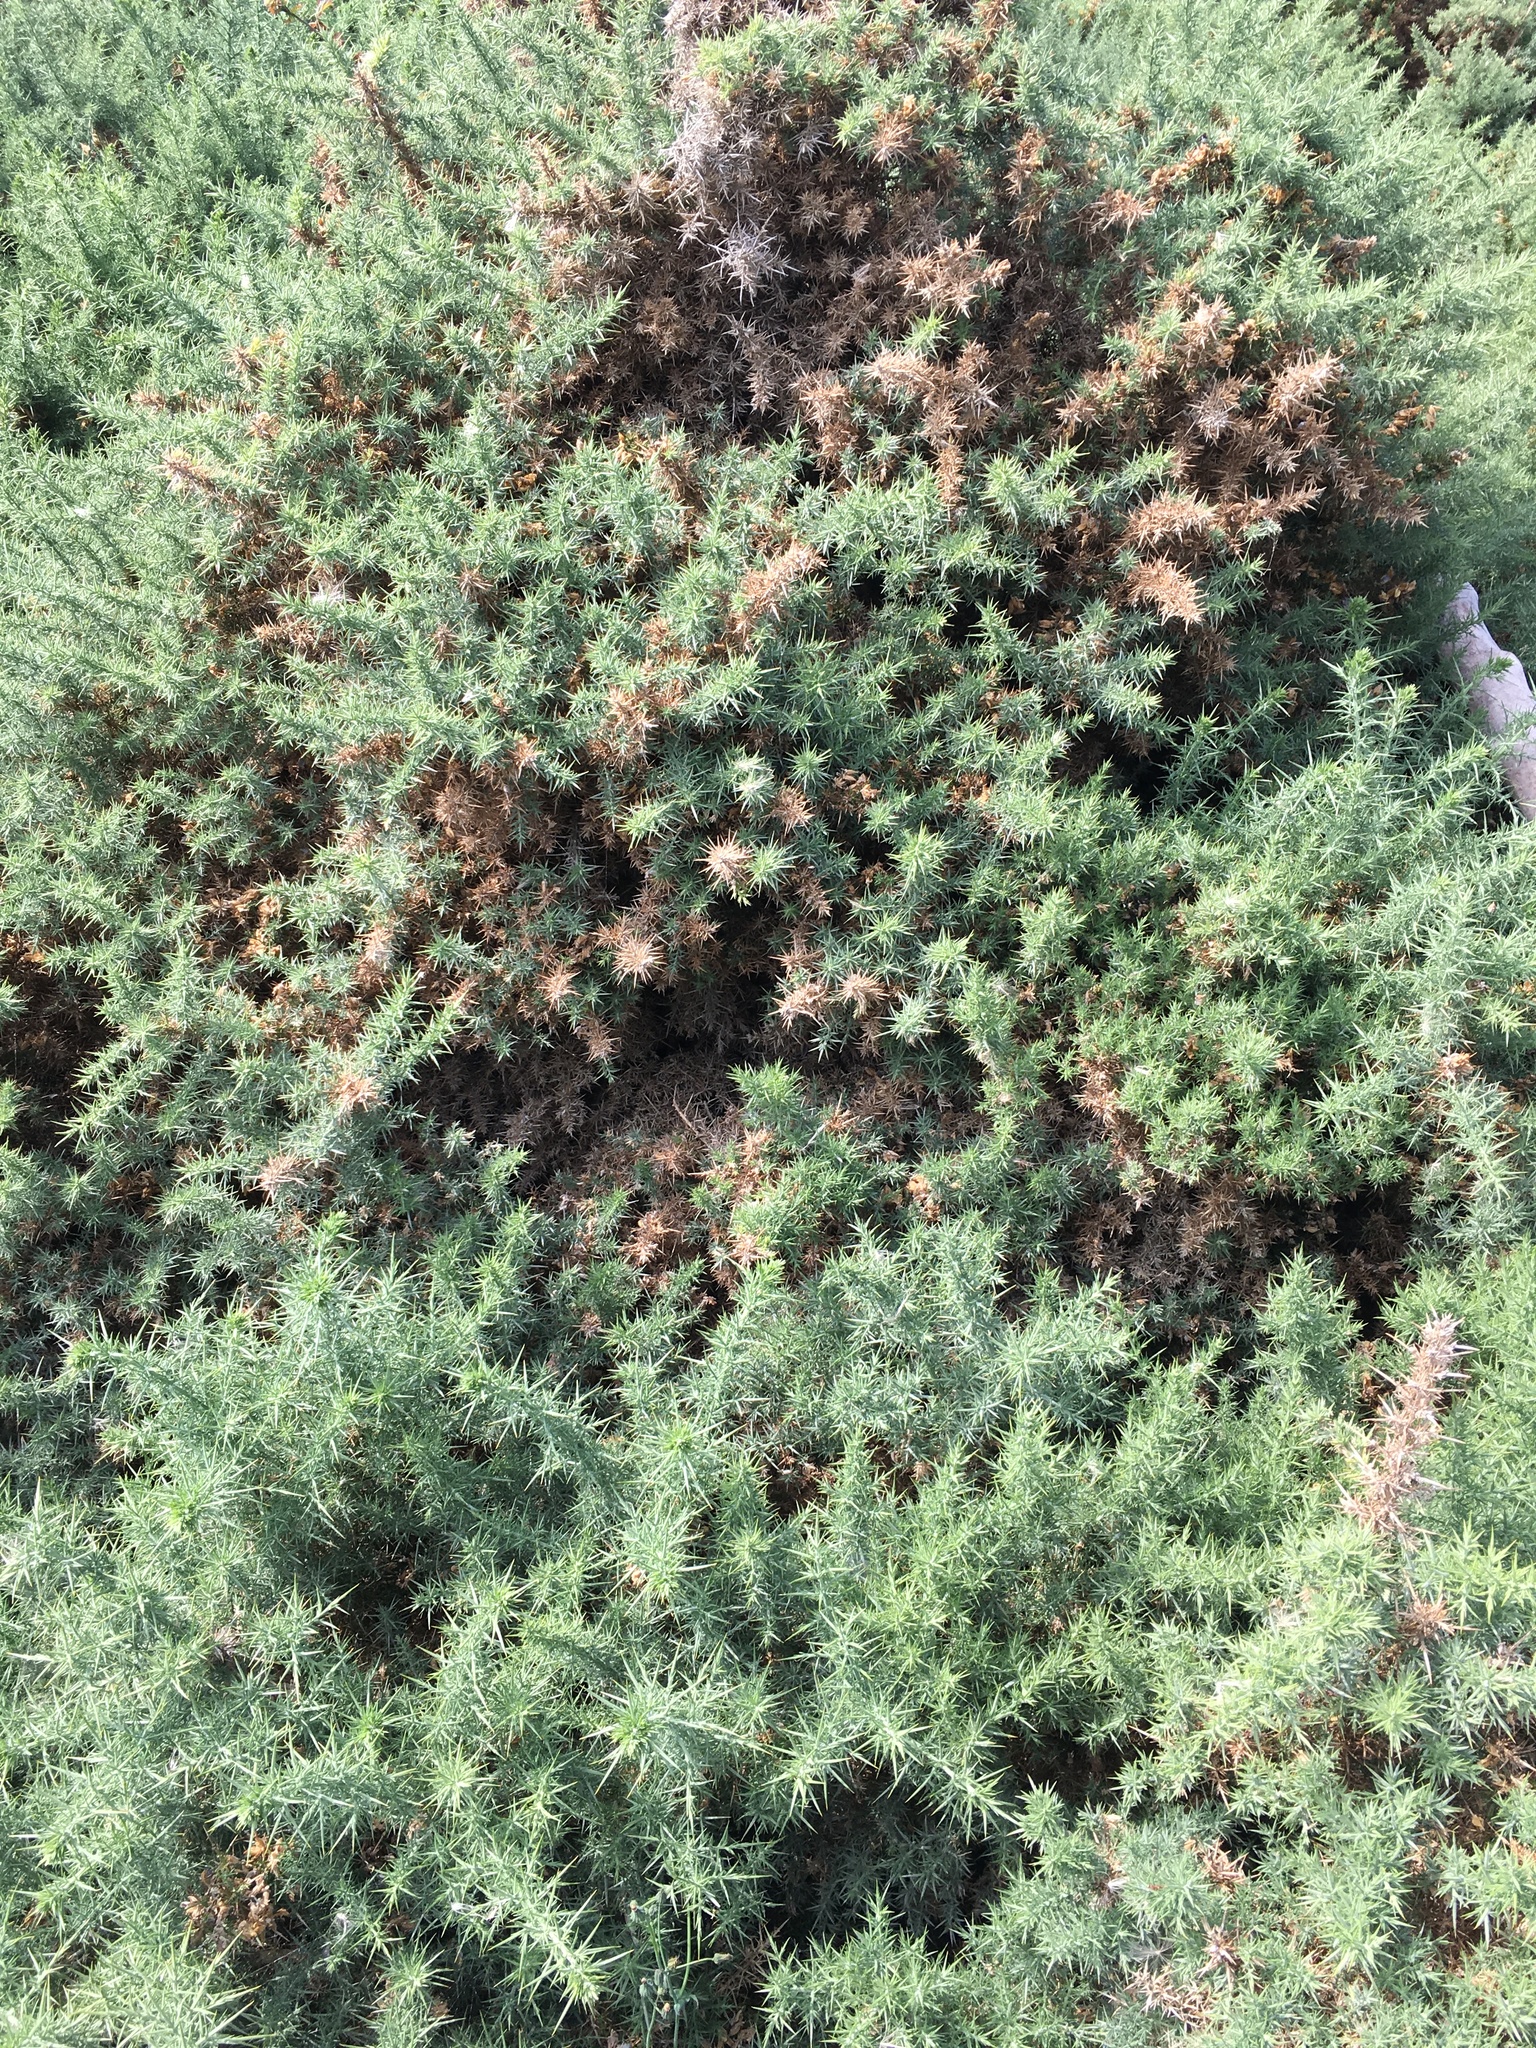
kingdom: Plantae
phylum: Tracheophyta
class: Magnoliopsida
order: Fabales
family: Fabaceae
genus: Ulex
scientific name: Ulex europaeus
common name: Common gorse
